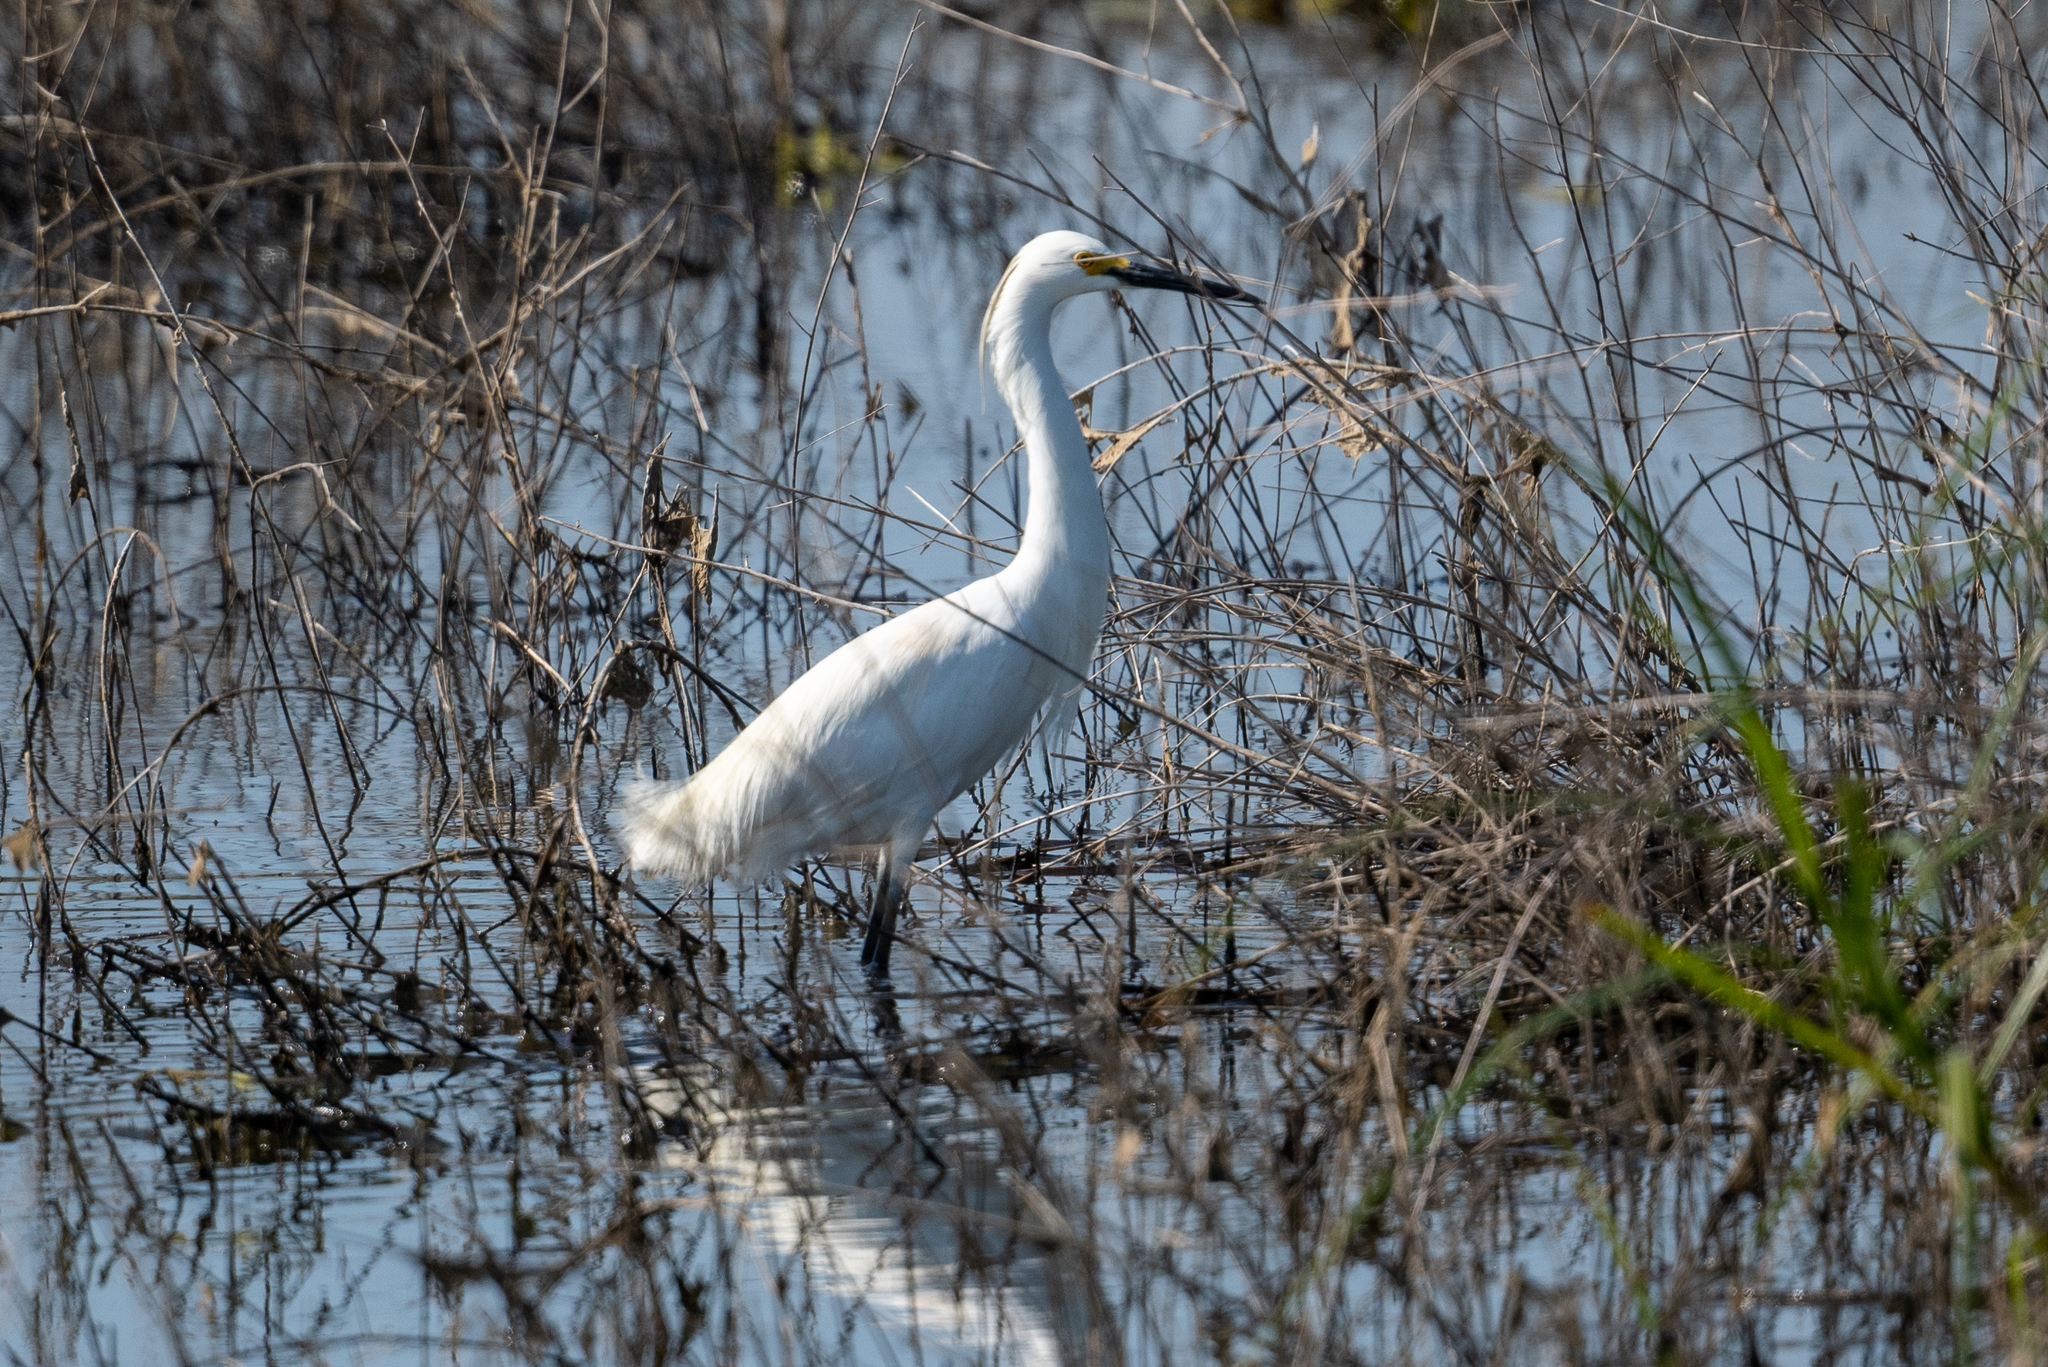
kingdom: Animalia
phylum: Chordata
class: Aves
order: Pelecaniformes
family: Ardeidae
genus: Egretta
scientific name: Egretta thula
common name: Snowy egret
